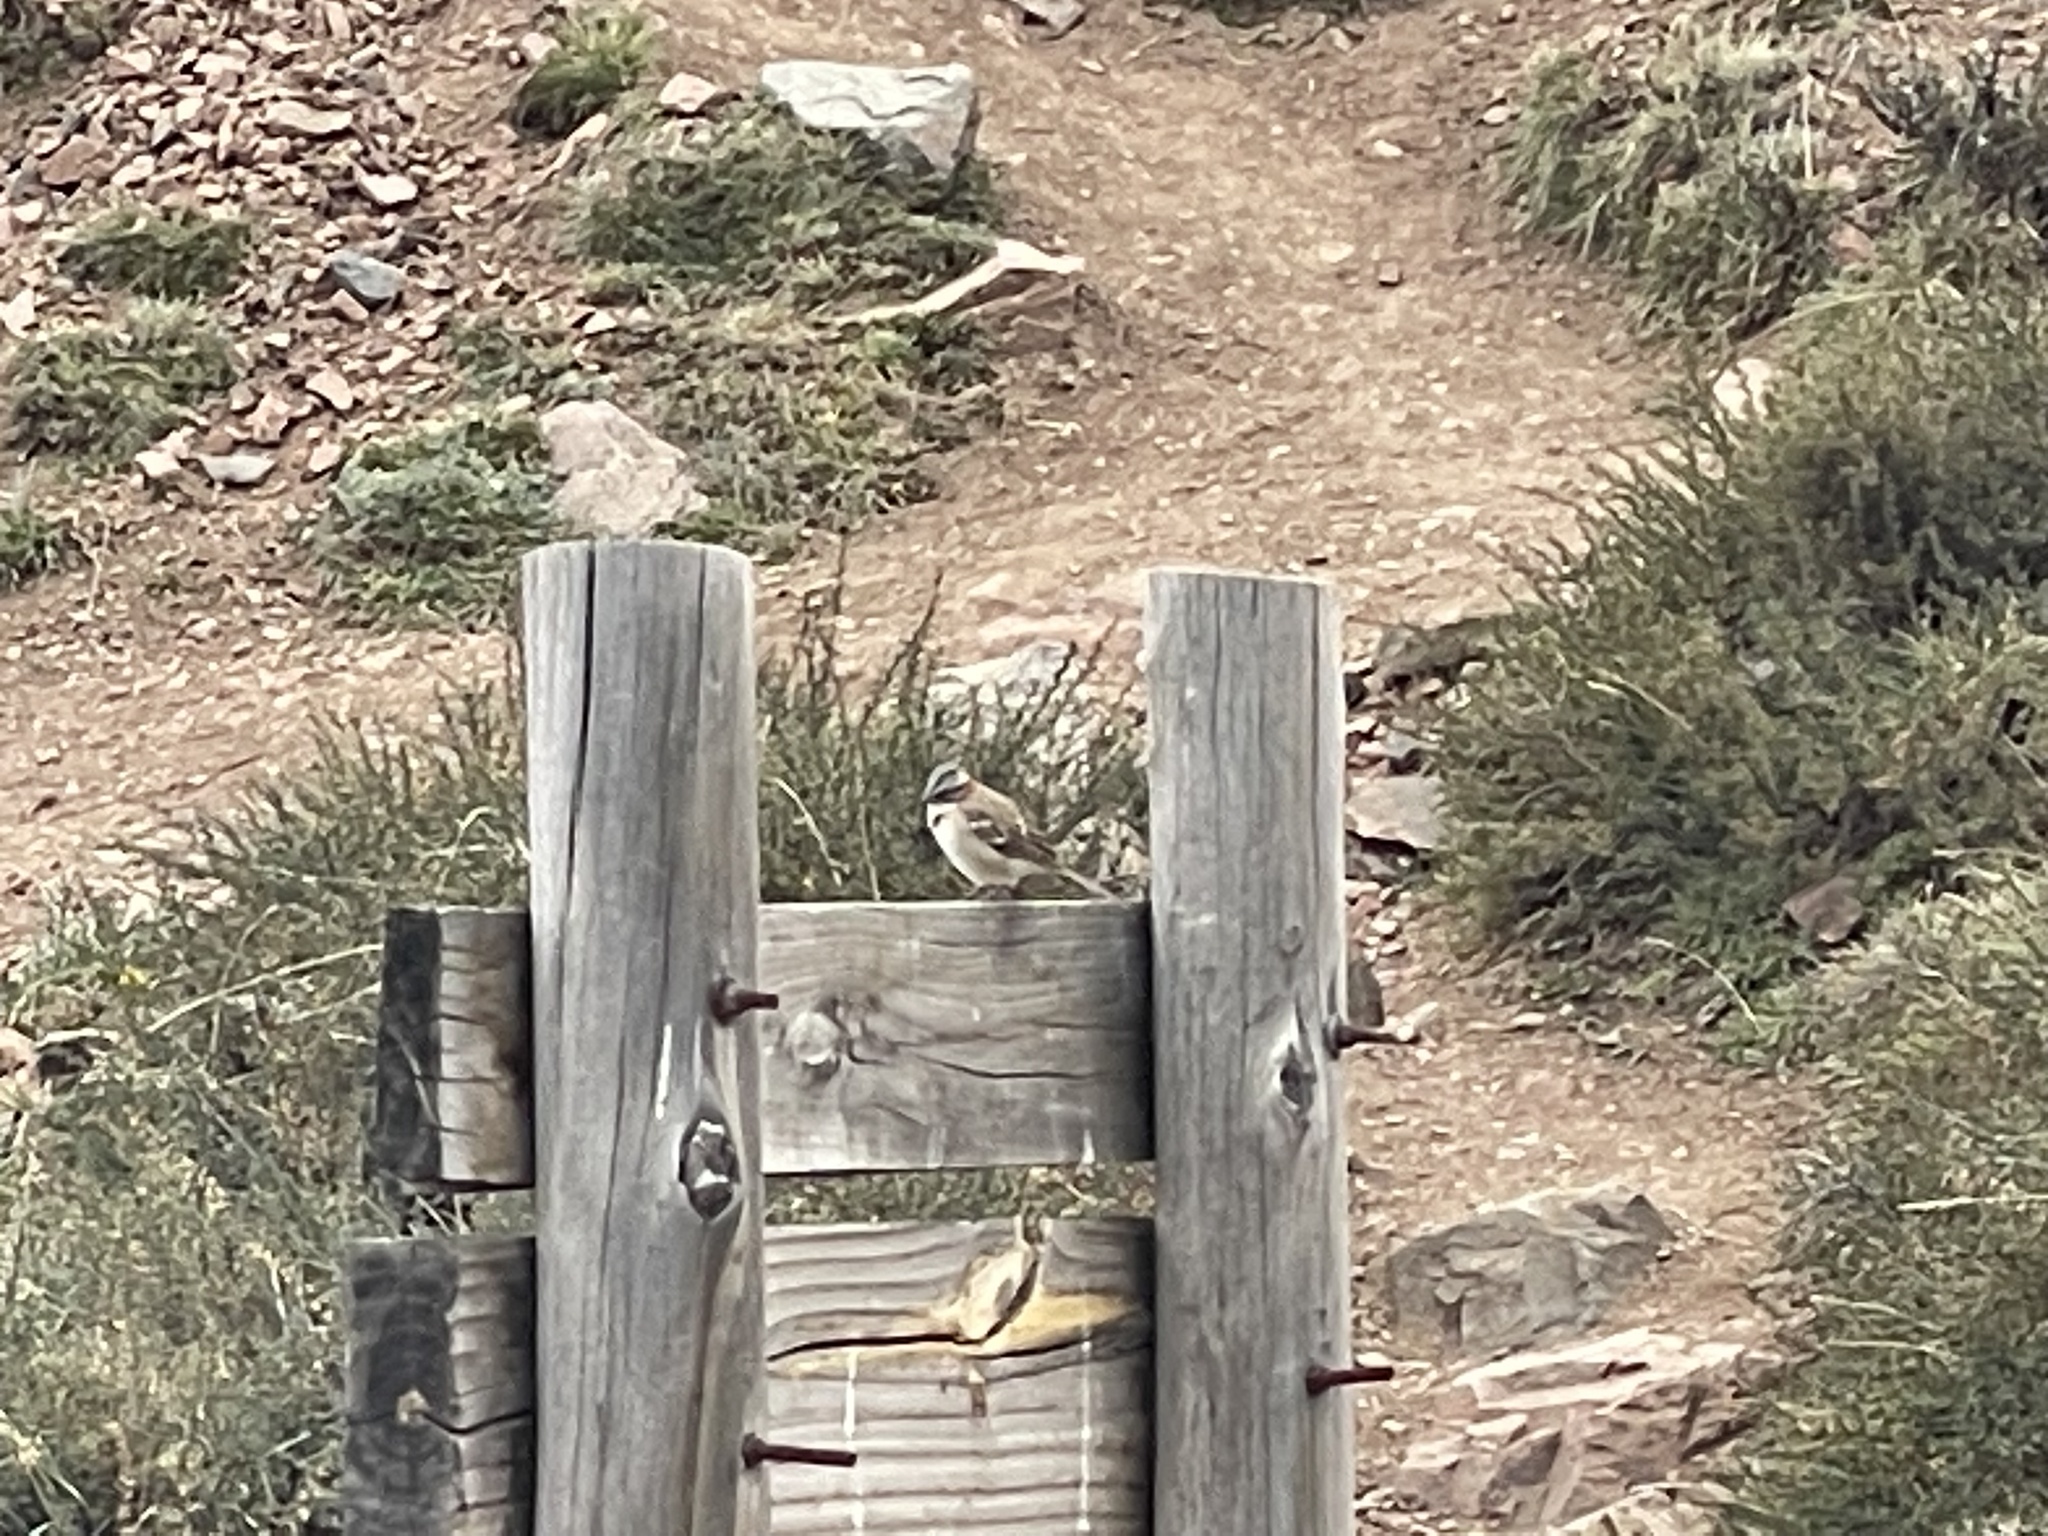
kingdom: Animalia
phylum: Chordata
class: Aves
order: Passeriformes
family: Passerellidae
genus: Zonotrichia
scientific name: Zonotrichia capensis
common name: Rufous-collared sparrow
